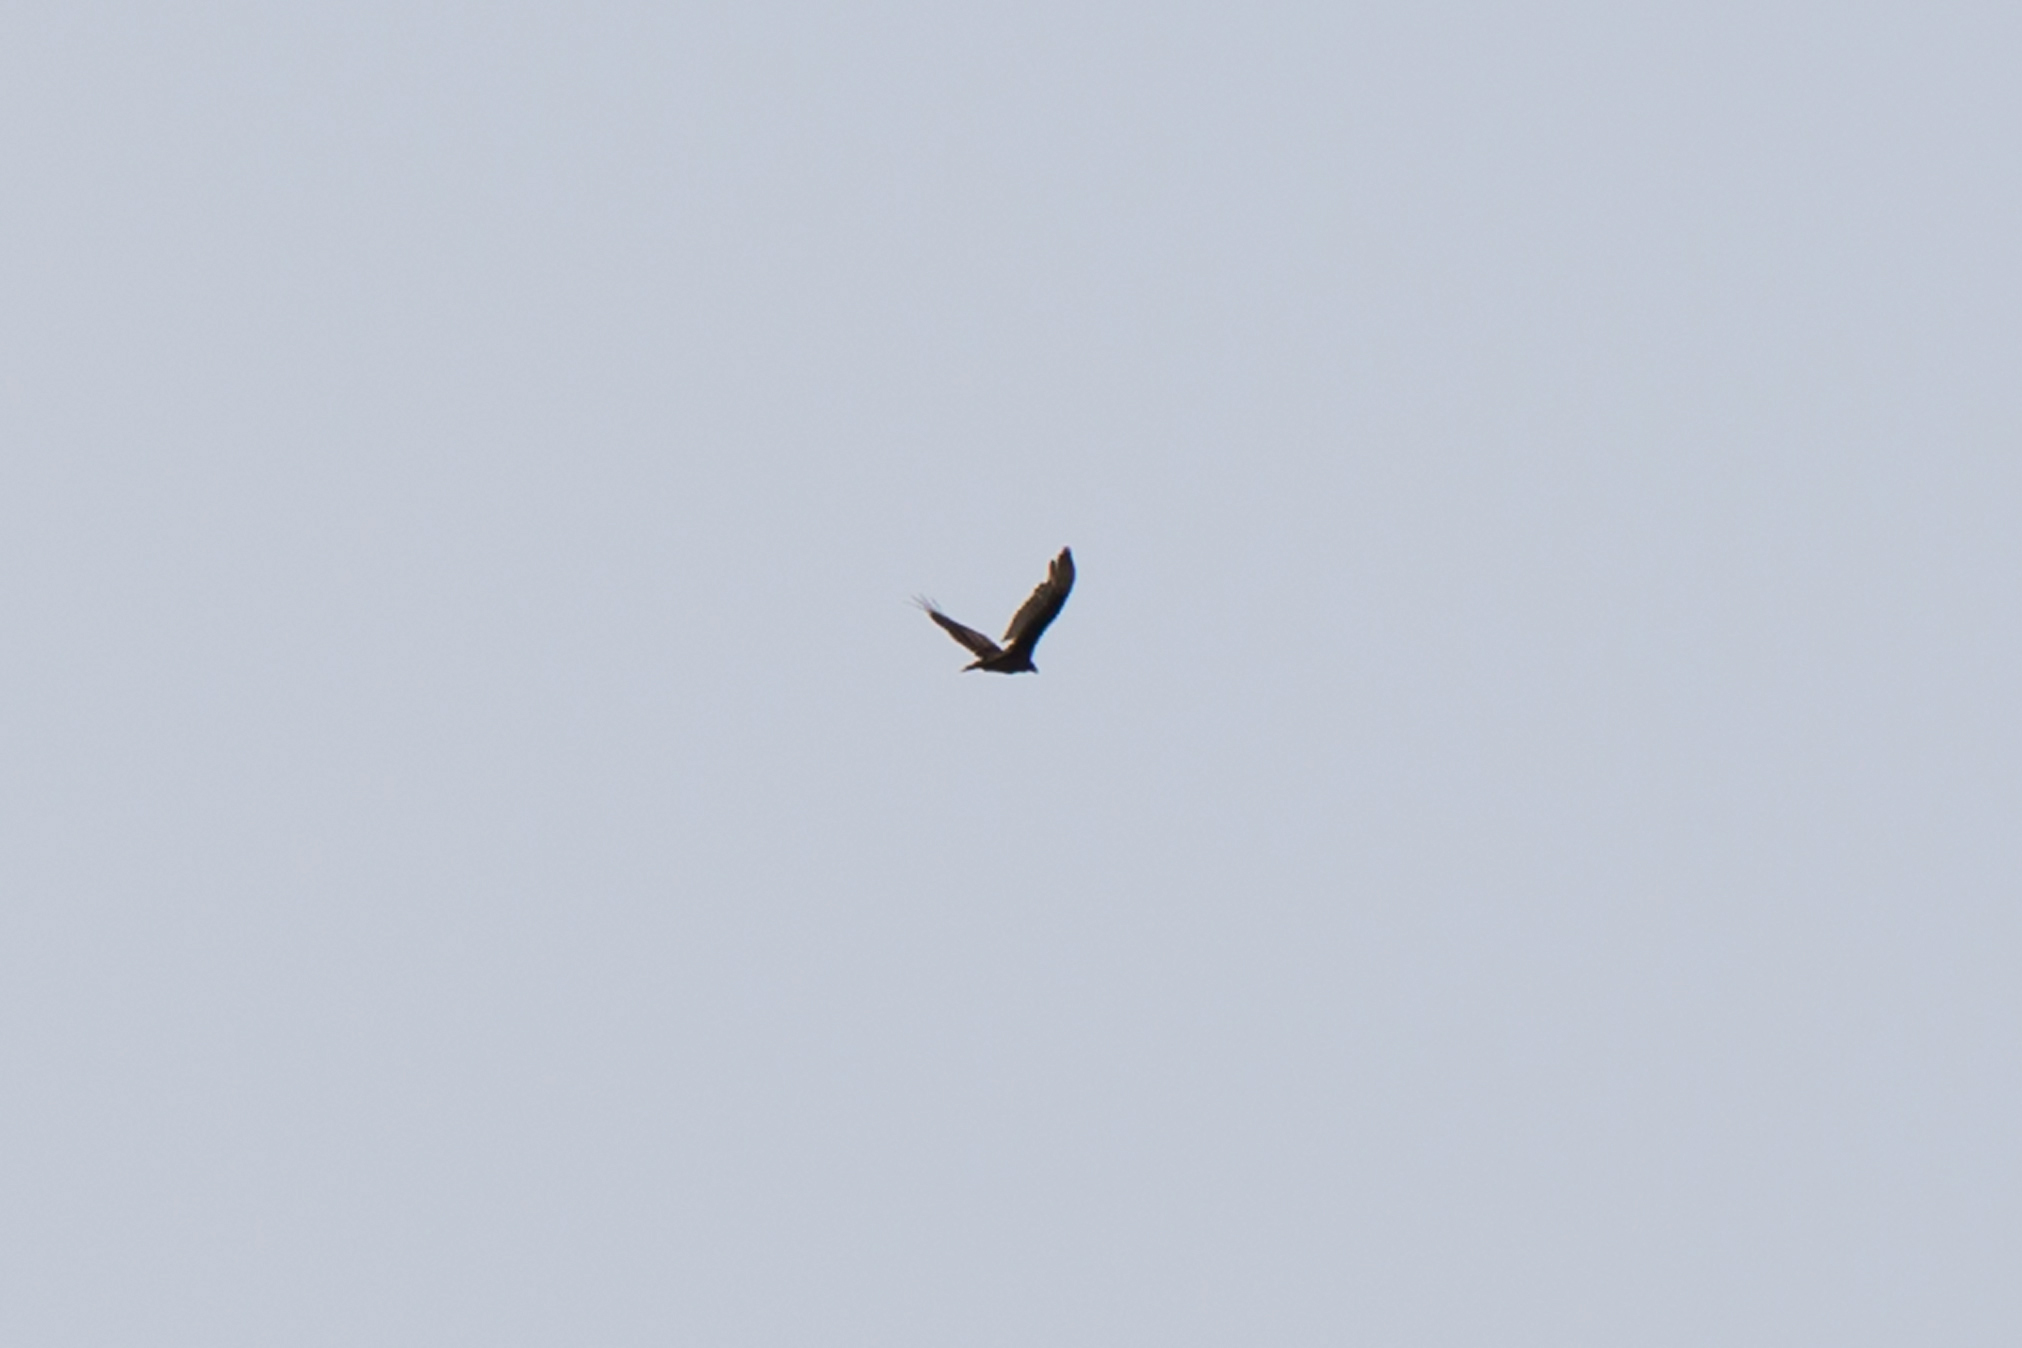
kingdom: Animalia
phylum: Chordata
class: Aves
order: Accipitriformes
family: Cathartidae
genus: Cathartes
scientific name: Cathartes aura
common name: Turkey vulture
